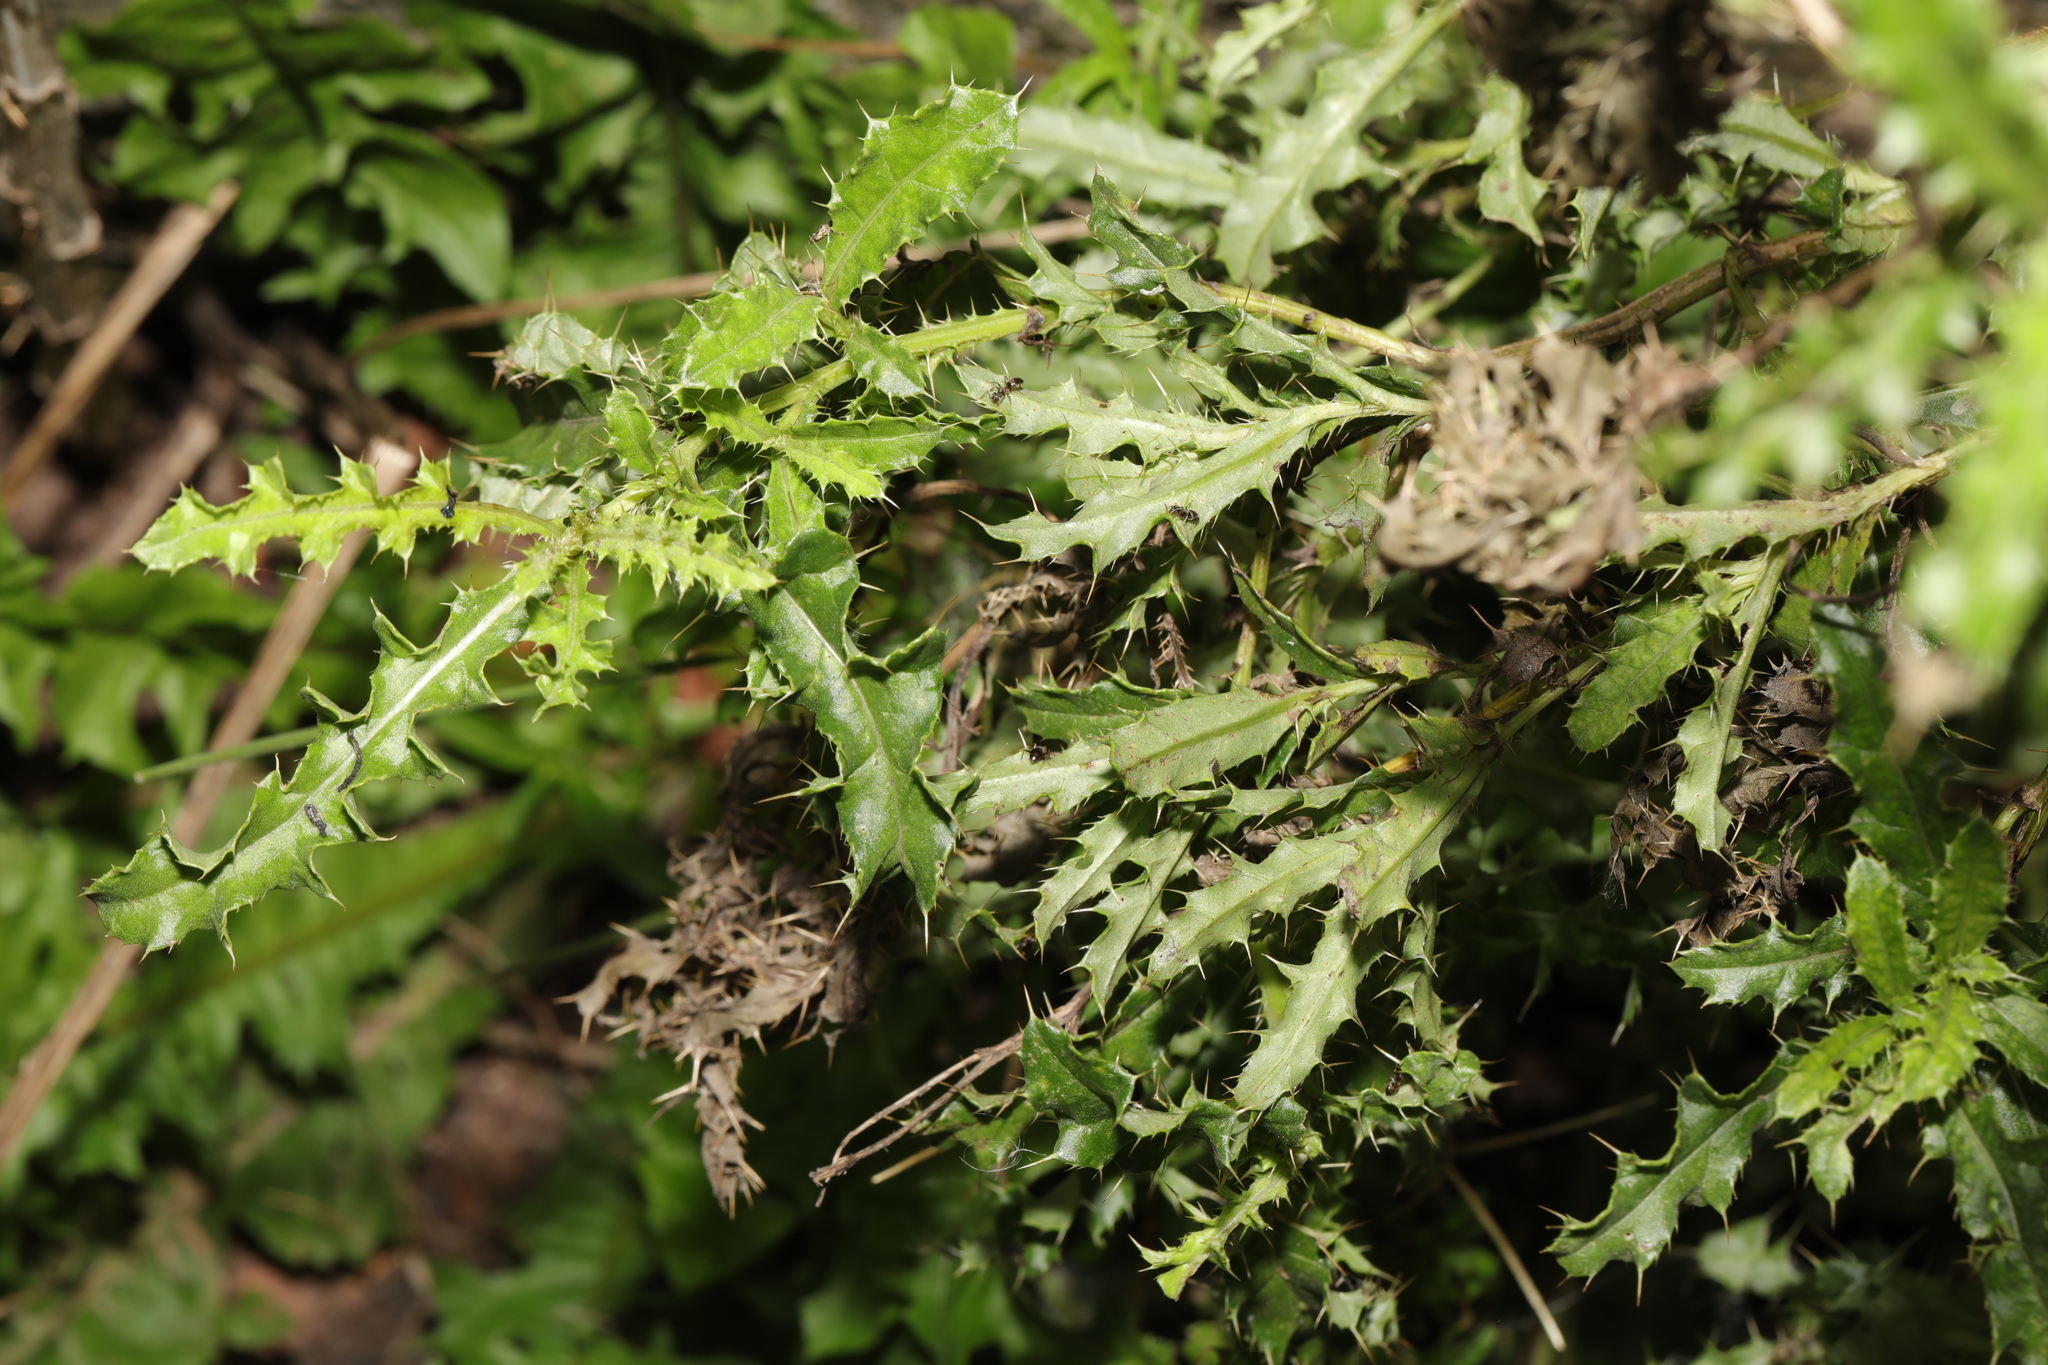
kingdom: Plantae
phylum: Tracheophyta
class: Magnoliopsida
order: Asterales
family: Asteraceae
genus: Cirsium
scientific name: Cirsium arvense
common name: Creeping thistle
